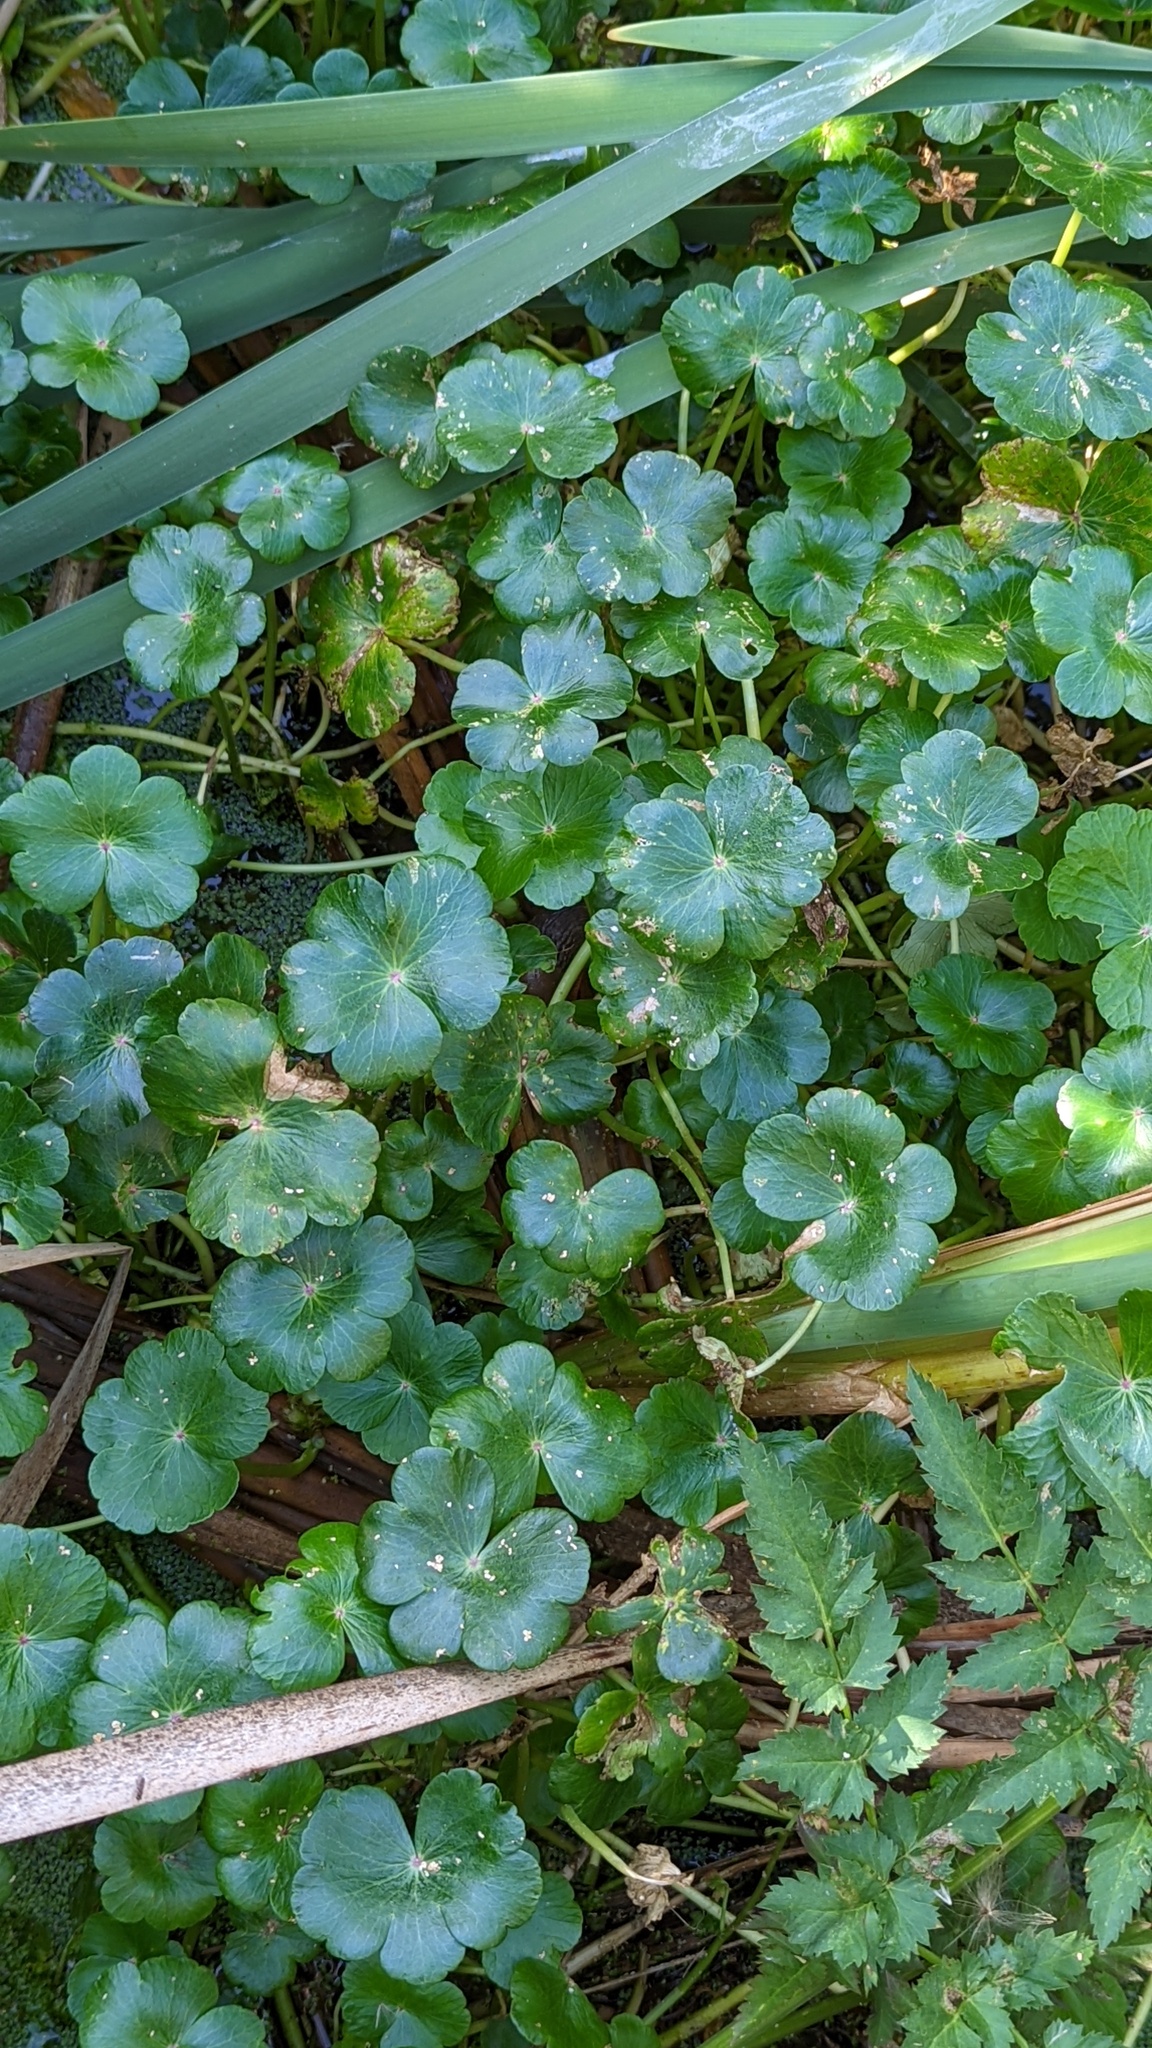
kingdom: Plantae
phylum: Tracheophyta
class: Magnoliopsida
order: Apiales
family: Araliaceae
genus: Hydrocotyle
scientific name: Hydrocotyle ranunculoides
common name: Floating pennywort
